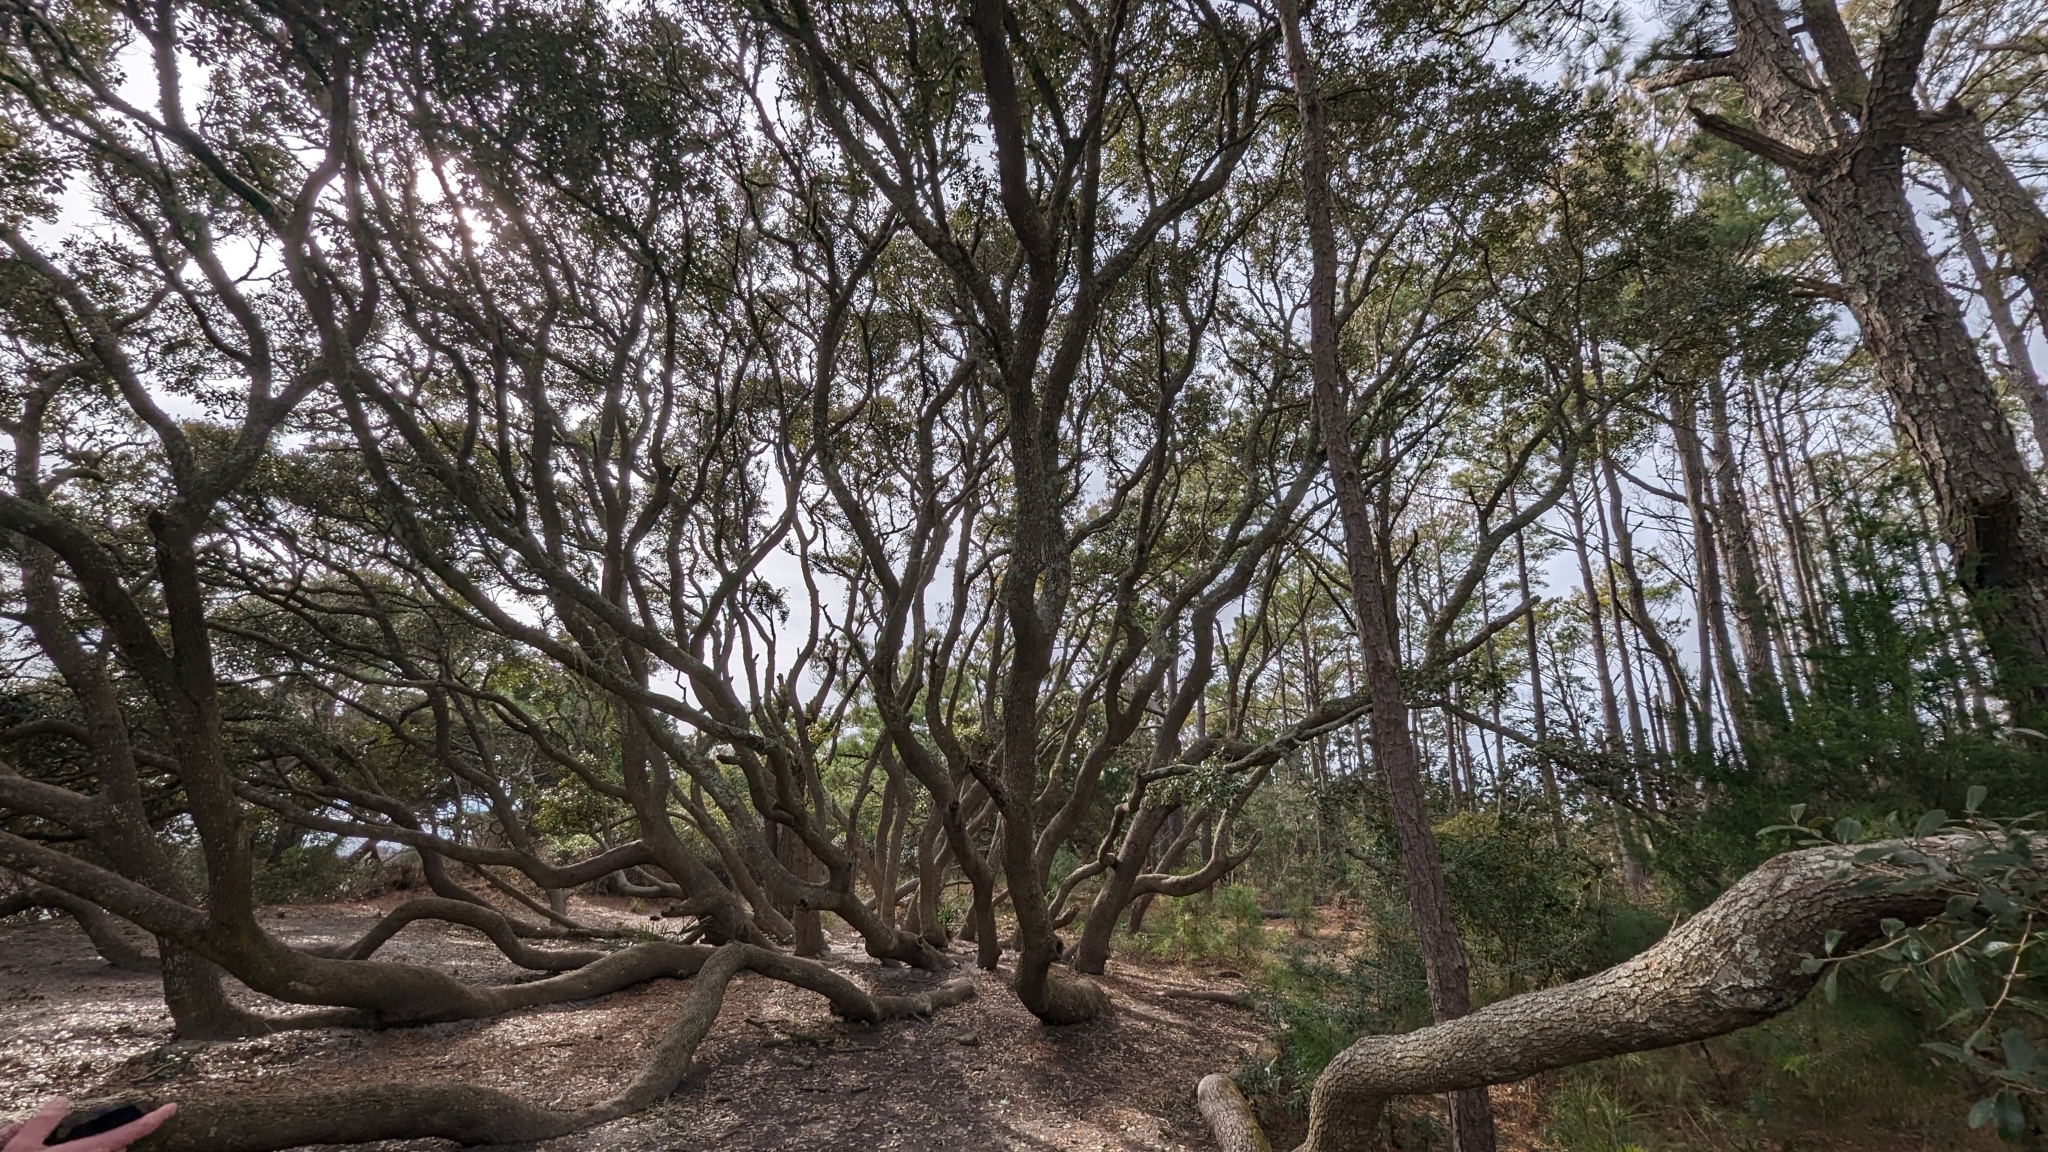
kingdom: Plantae
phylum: Tracheophyta
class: Magnoliopsida
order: Fagales
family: Fagaceae
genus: Quercus
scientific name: Quercus virginiana
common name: Southern live oak
